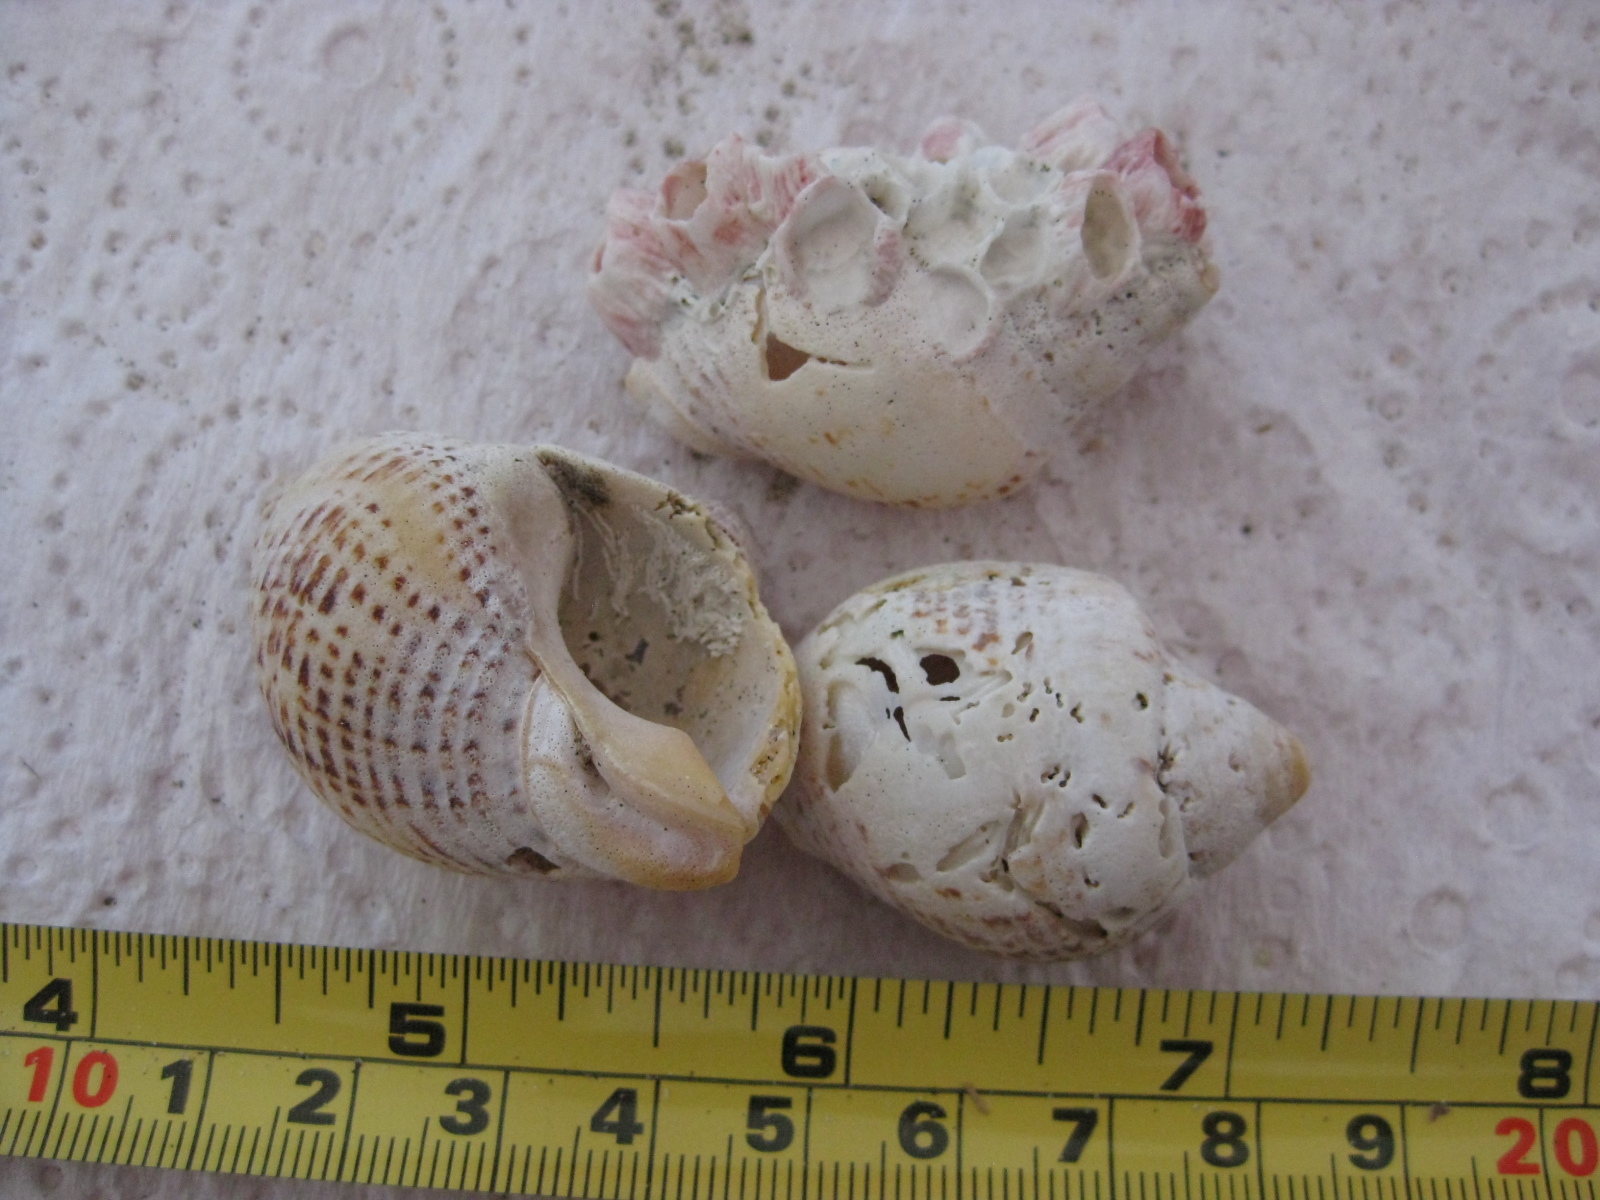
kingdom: Animalia
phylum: Mollusca
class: Gastropoda
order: Neogastropoda
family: Cominellidae
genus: Cominella
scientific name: Cominella adspersa
